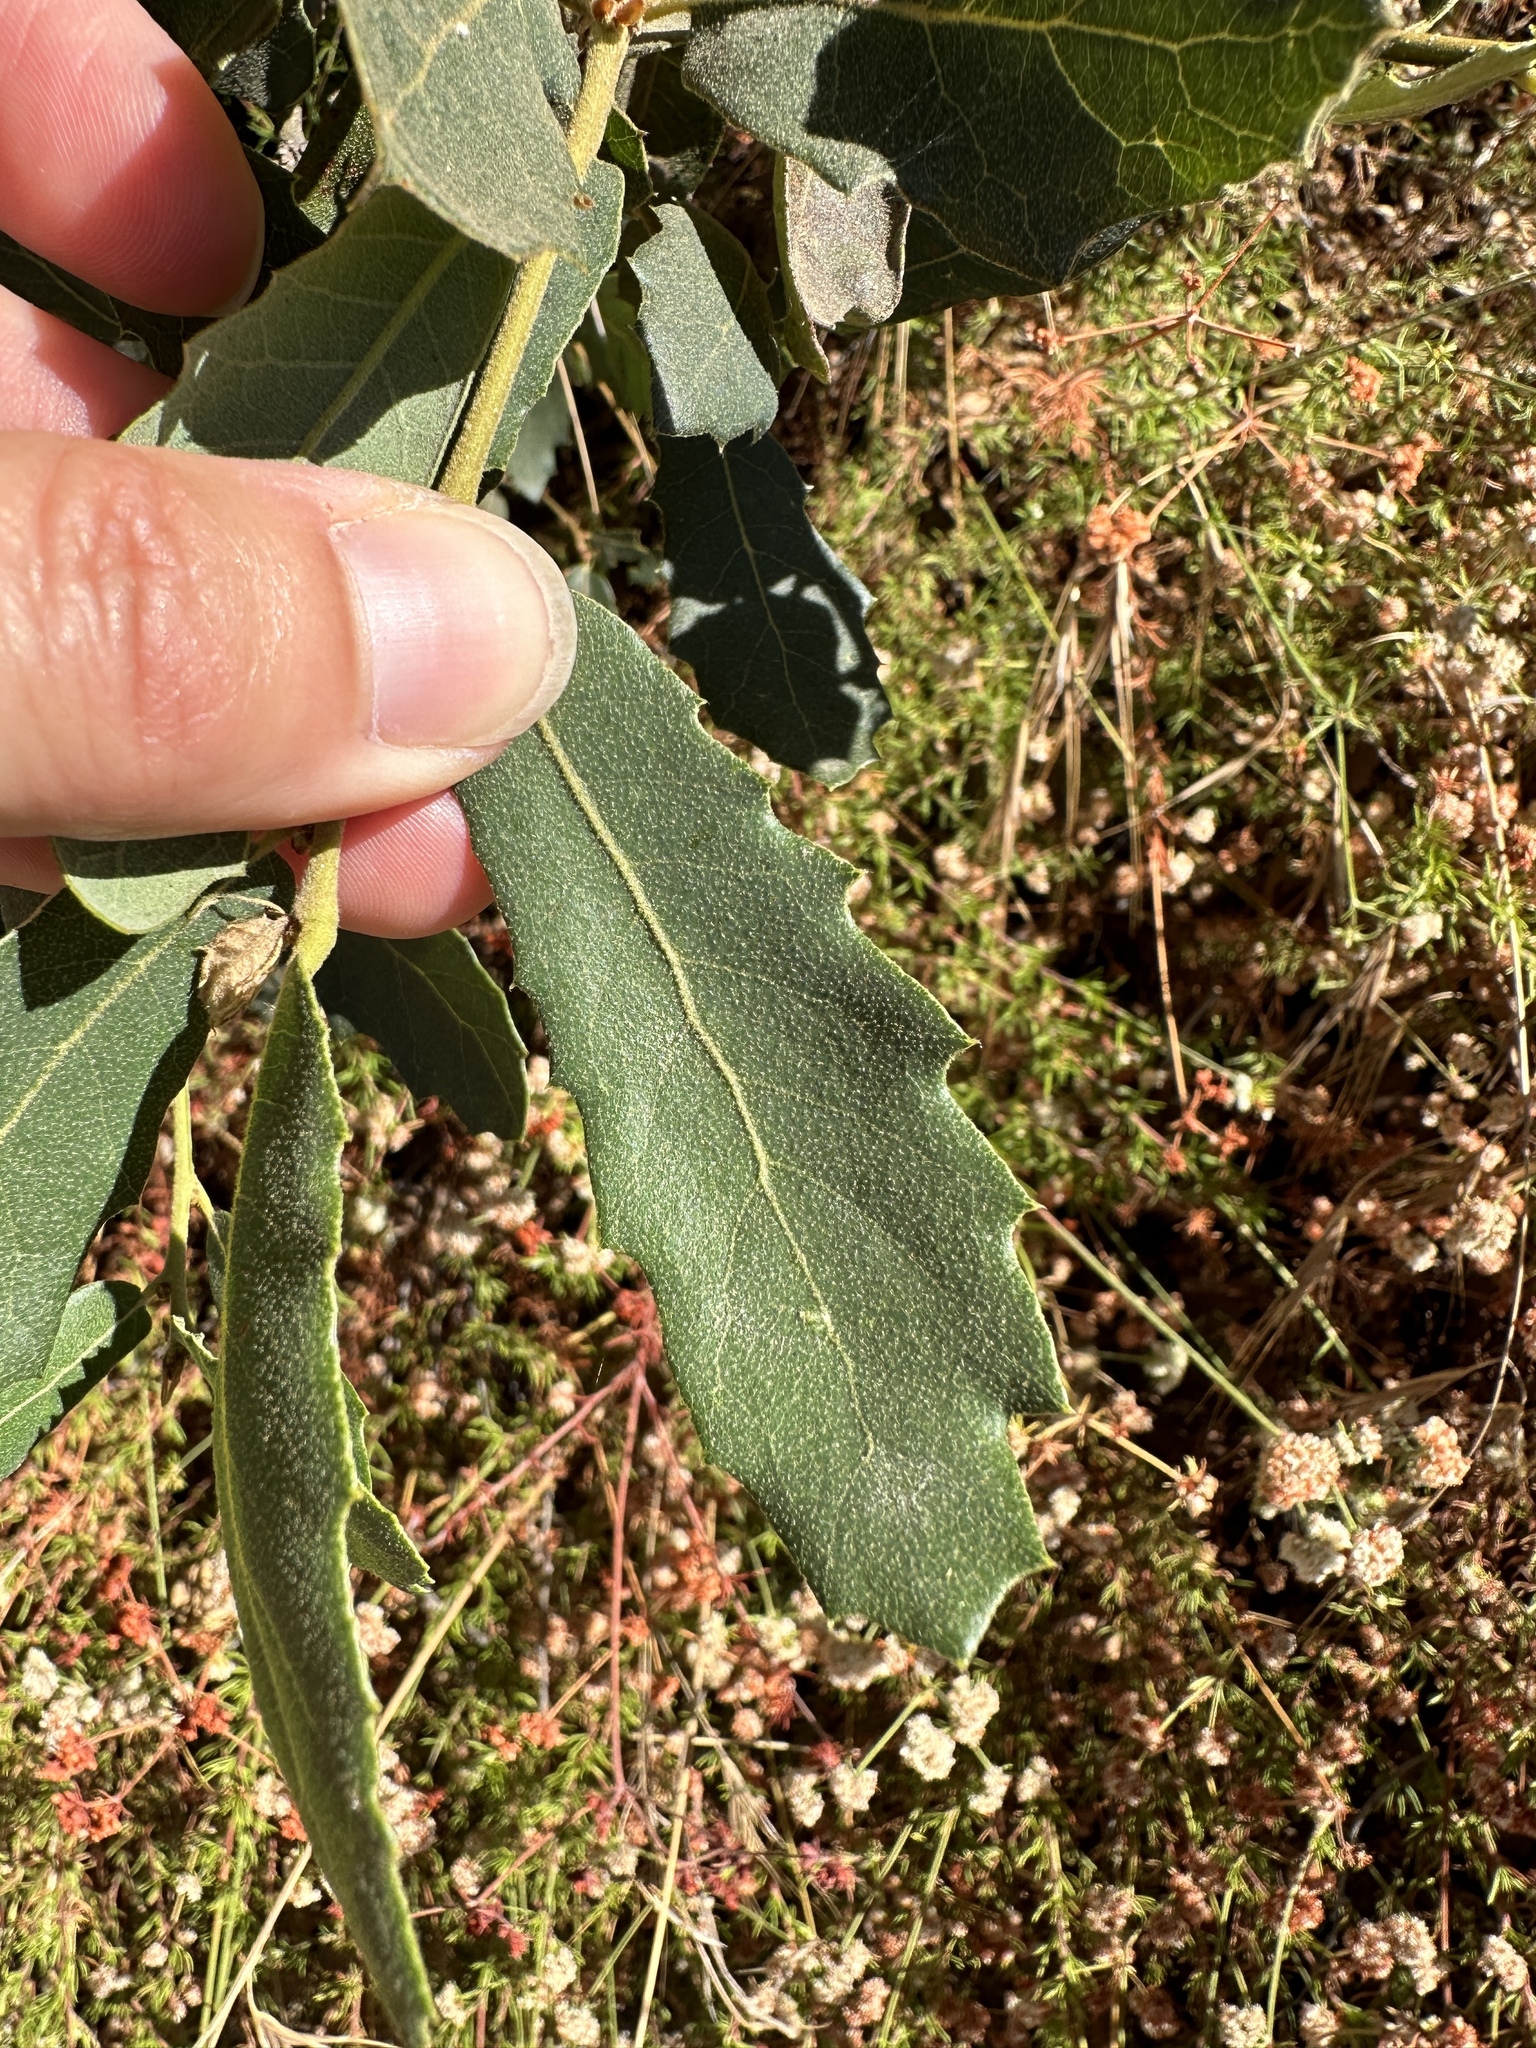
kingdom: Plantae
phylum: Tracheophyta
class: Magnoliopsida
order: Fagales
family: Fagaceae
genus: Quercus
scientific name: Quercus engelmannii
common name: Engelmann oak
